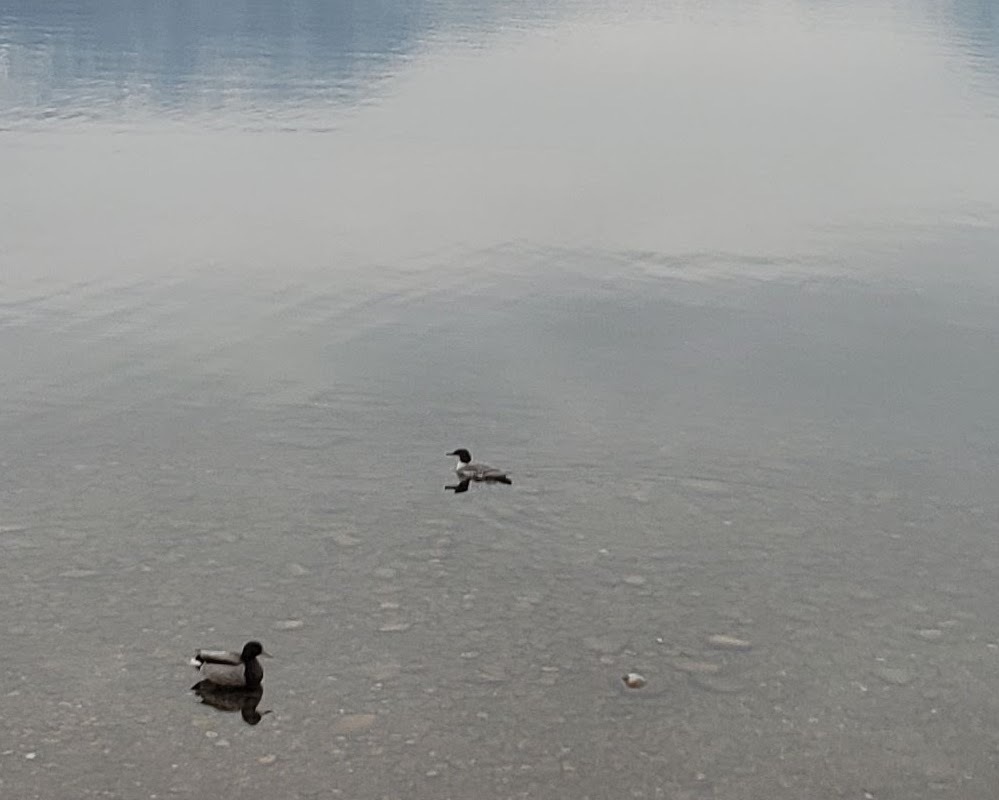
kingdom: Animalia
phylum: Chordata
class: Aves
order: Anseriformes
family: Anatidae
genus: Mergus
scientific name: Mergus merganser
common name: Common merganser
